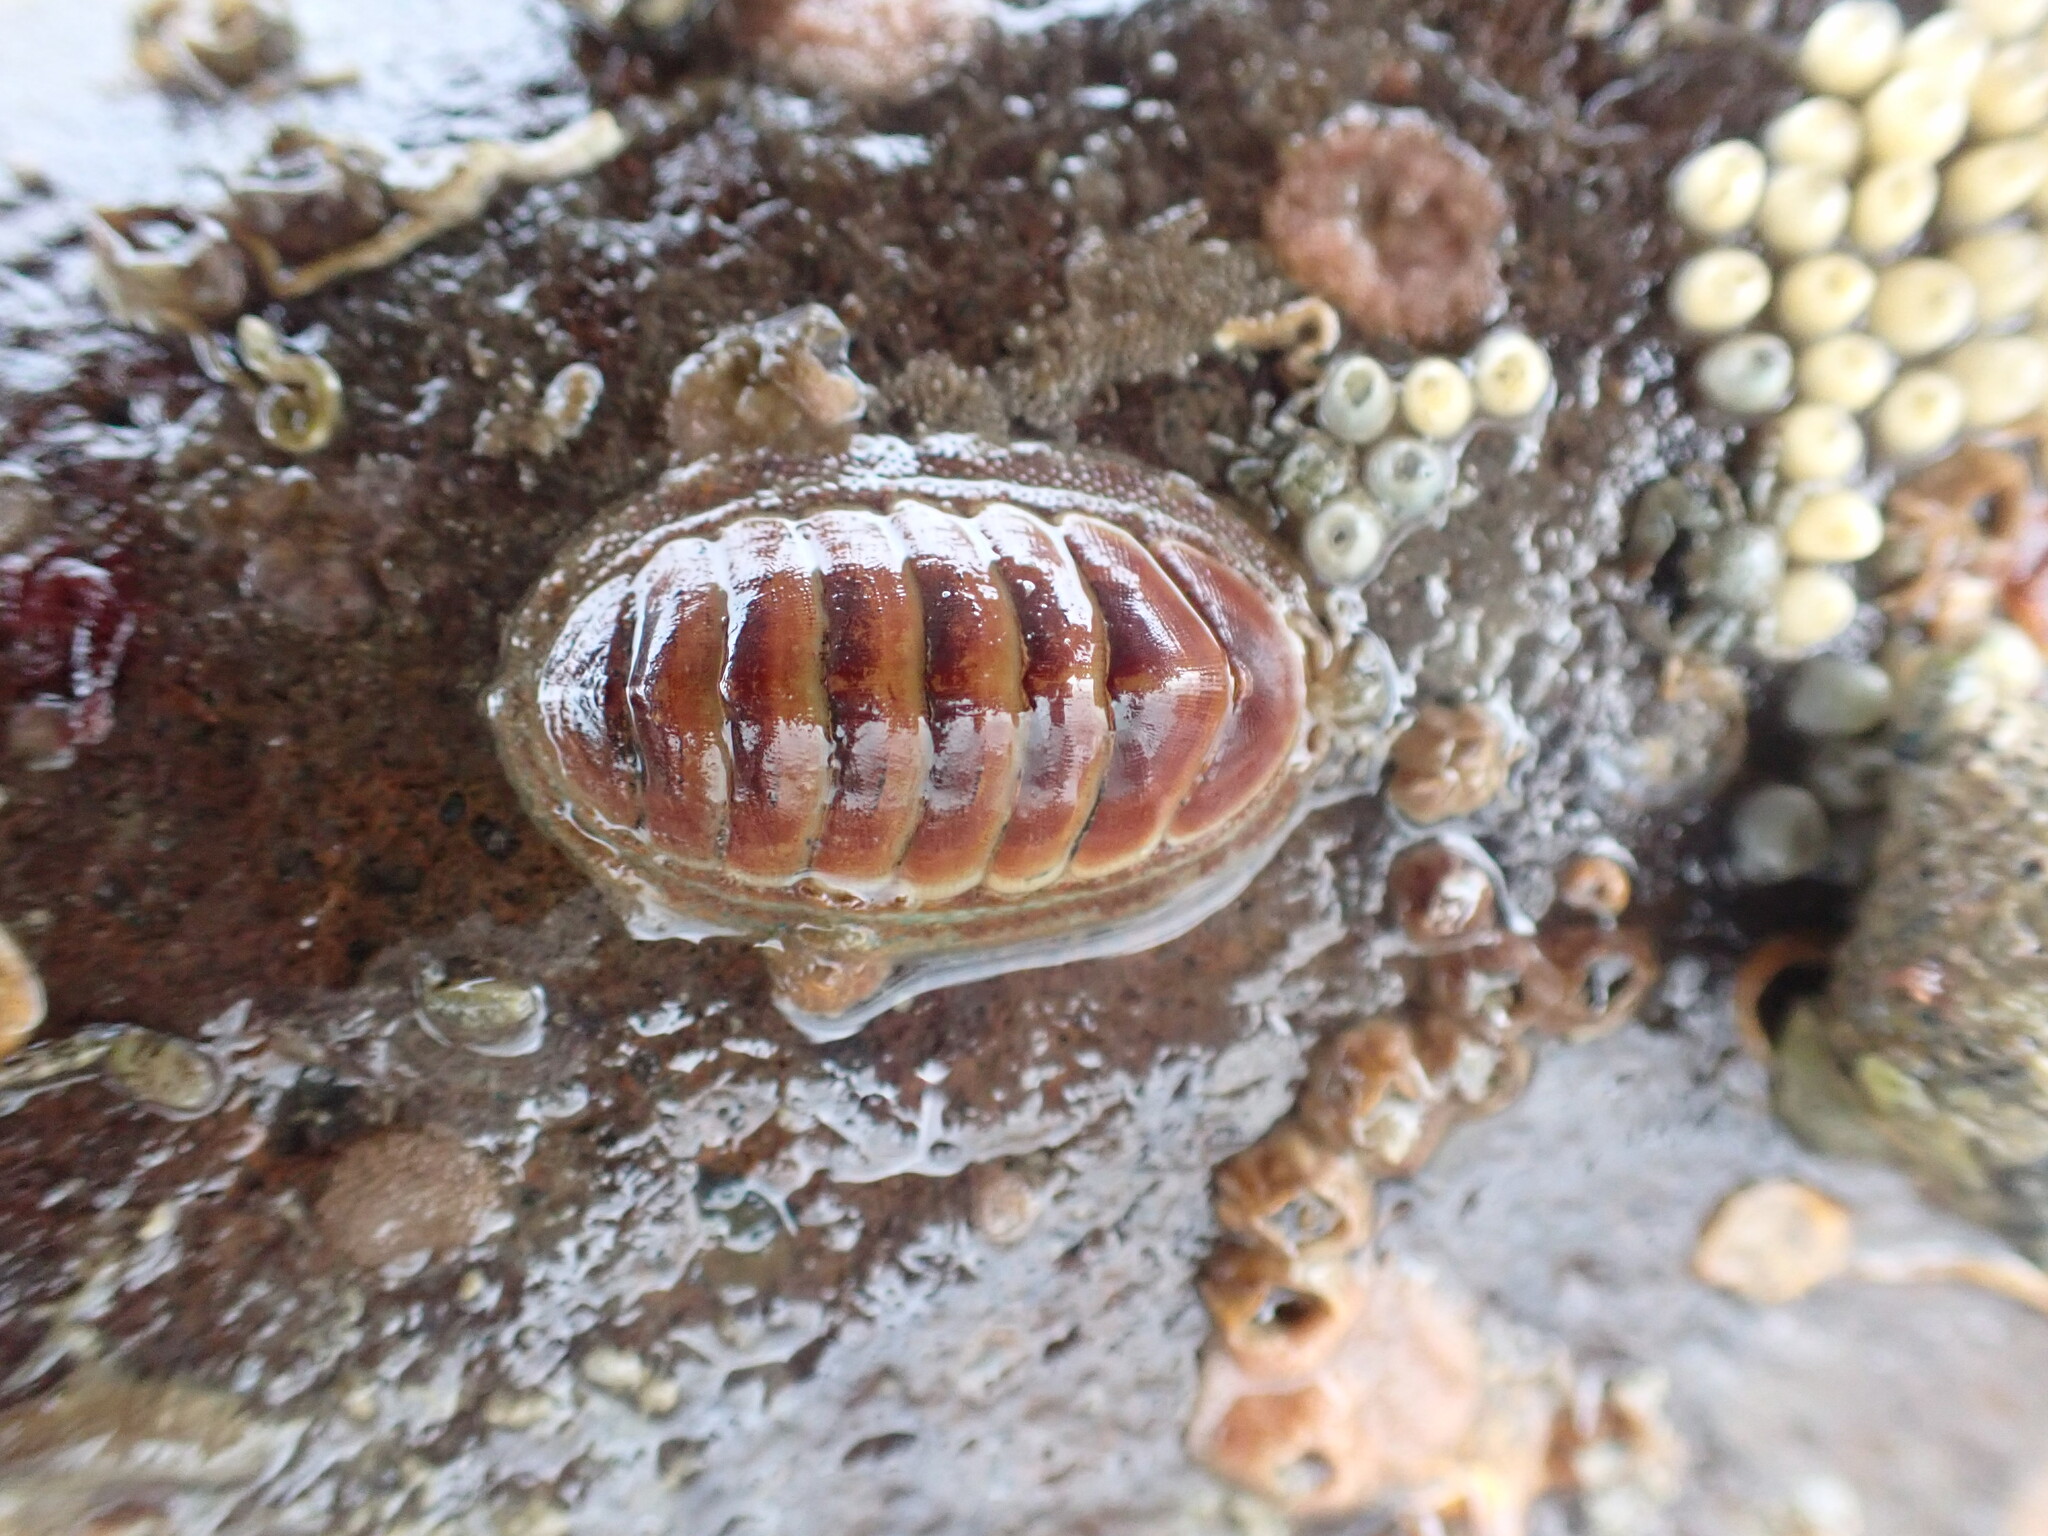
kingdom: Animalia
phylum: Mollusca
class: Polyplacophora
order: Chitonida
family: Chitonidae
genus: Chiton
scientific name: Chiton glaucus
